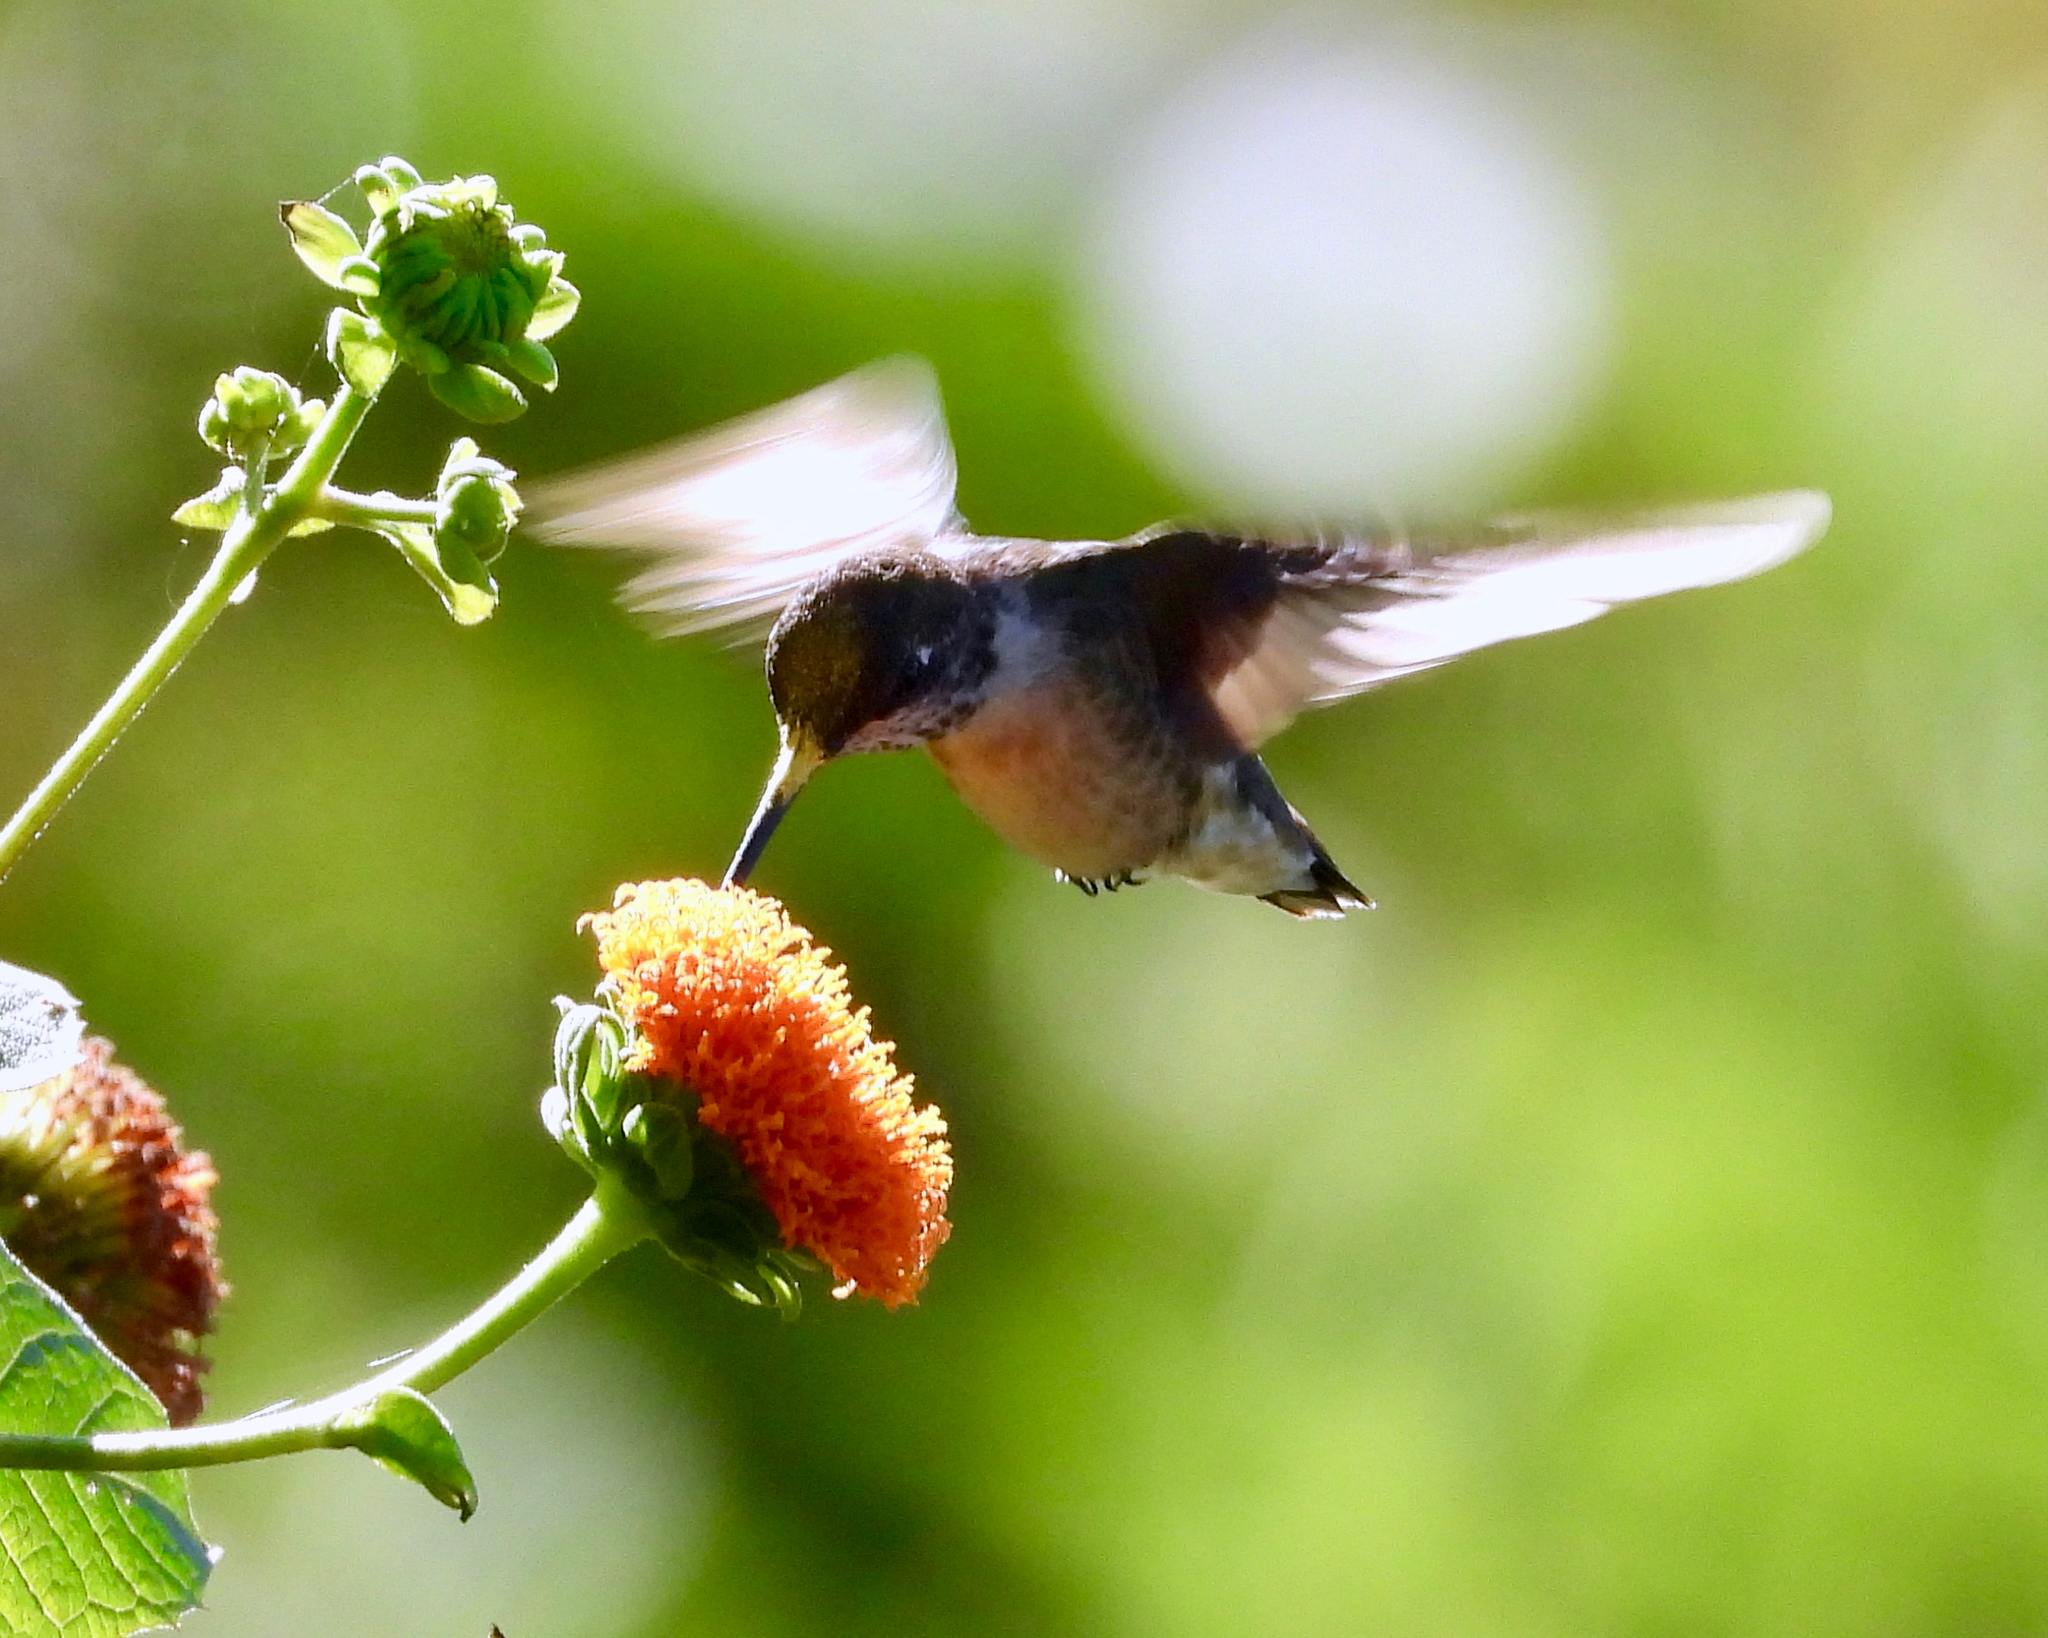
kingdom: Animalia
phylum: Chordata
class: Aves
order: Apodiformes
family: Trochilidae
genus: Archilochus
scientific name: Archilochus colubris
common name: Ruby-throated hummingbird
